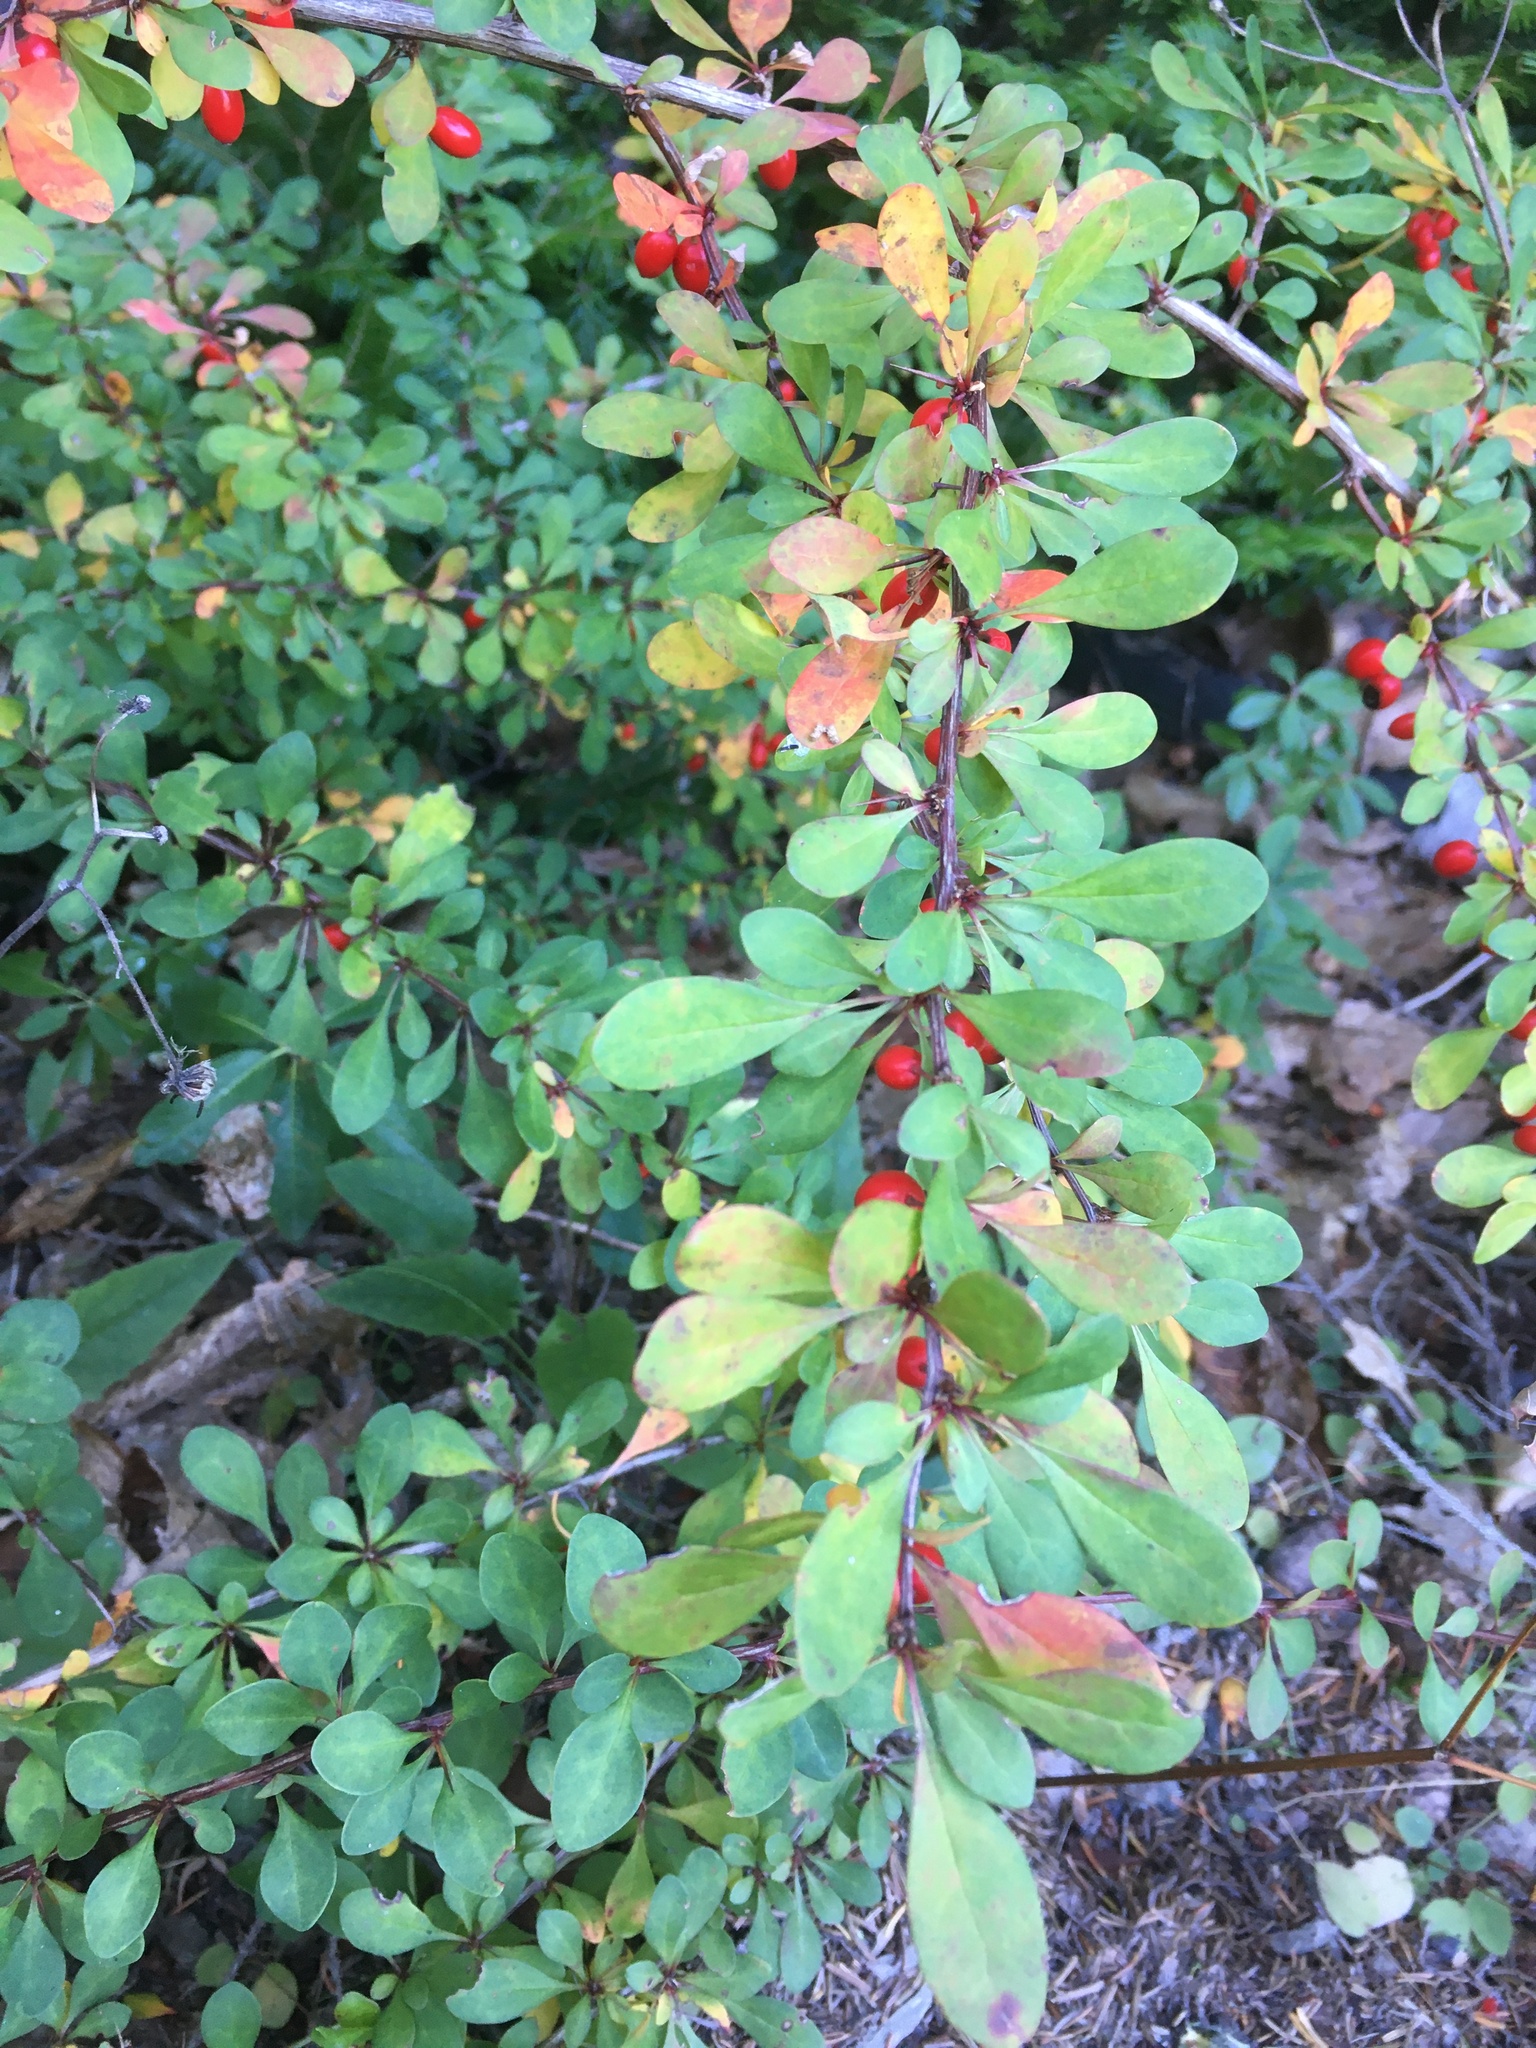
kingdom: Plantae
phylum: Tracheophyta
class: Magnoliopsida
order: Ranunculales
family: Berberidaceae
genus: Berberis
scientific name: Berberis thunbergii
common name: Japanese barberry
